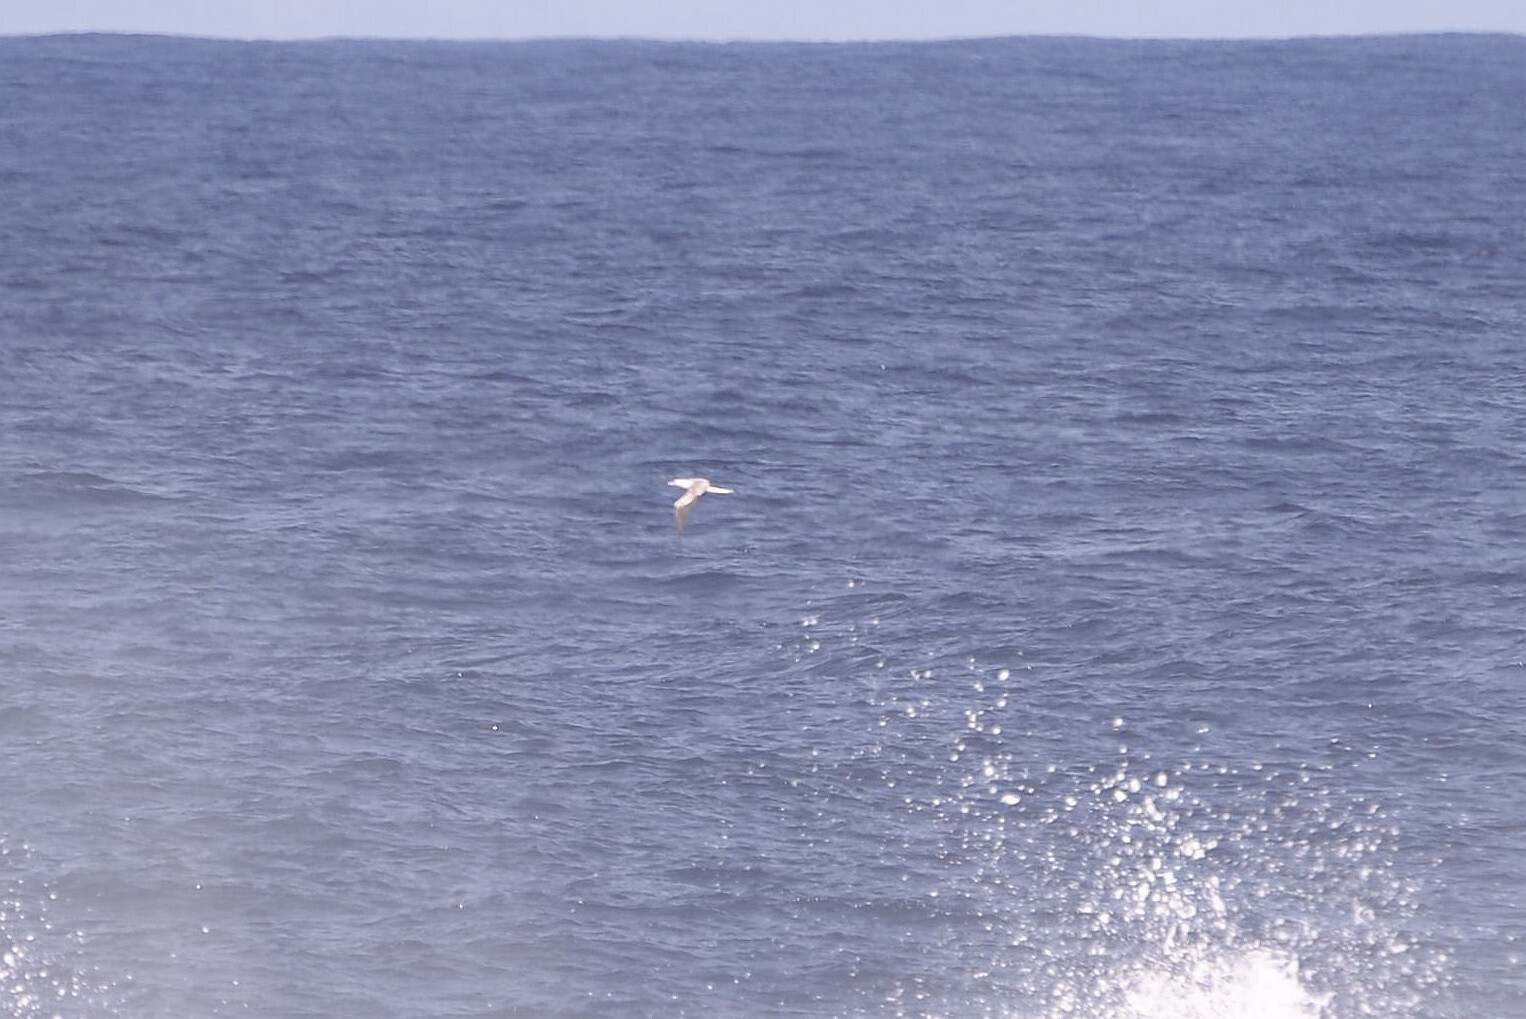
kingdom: Animalia
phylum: Chordata
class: Aves
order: Suliformes
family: Sulidae
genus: Sula
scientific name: Sula sula
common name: Red-footed booby
